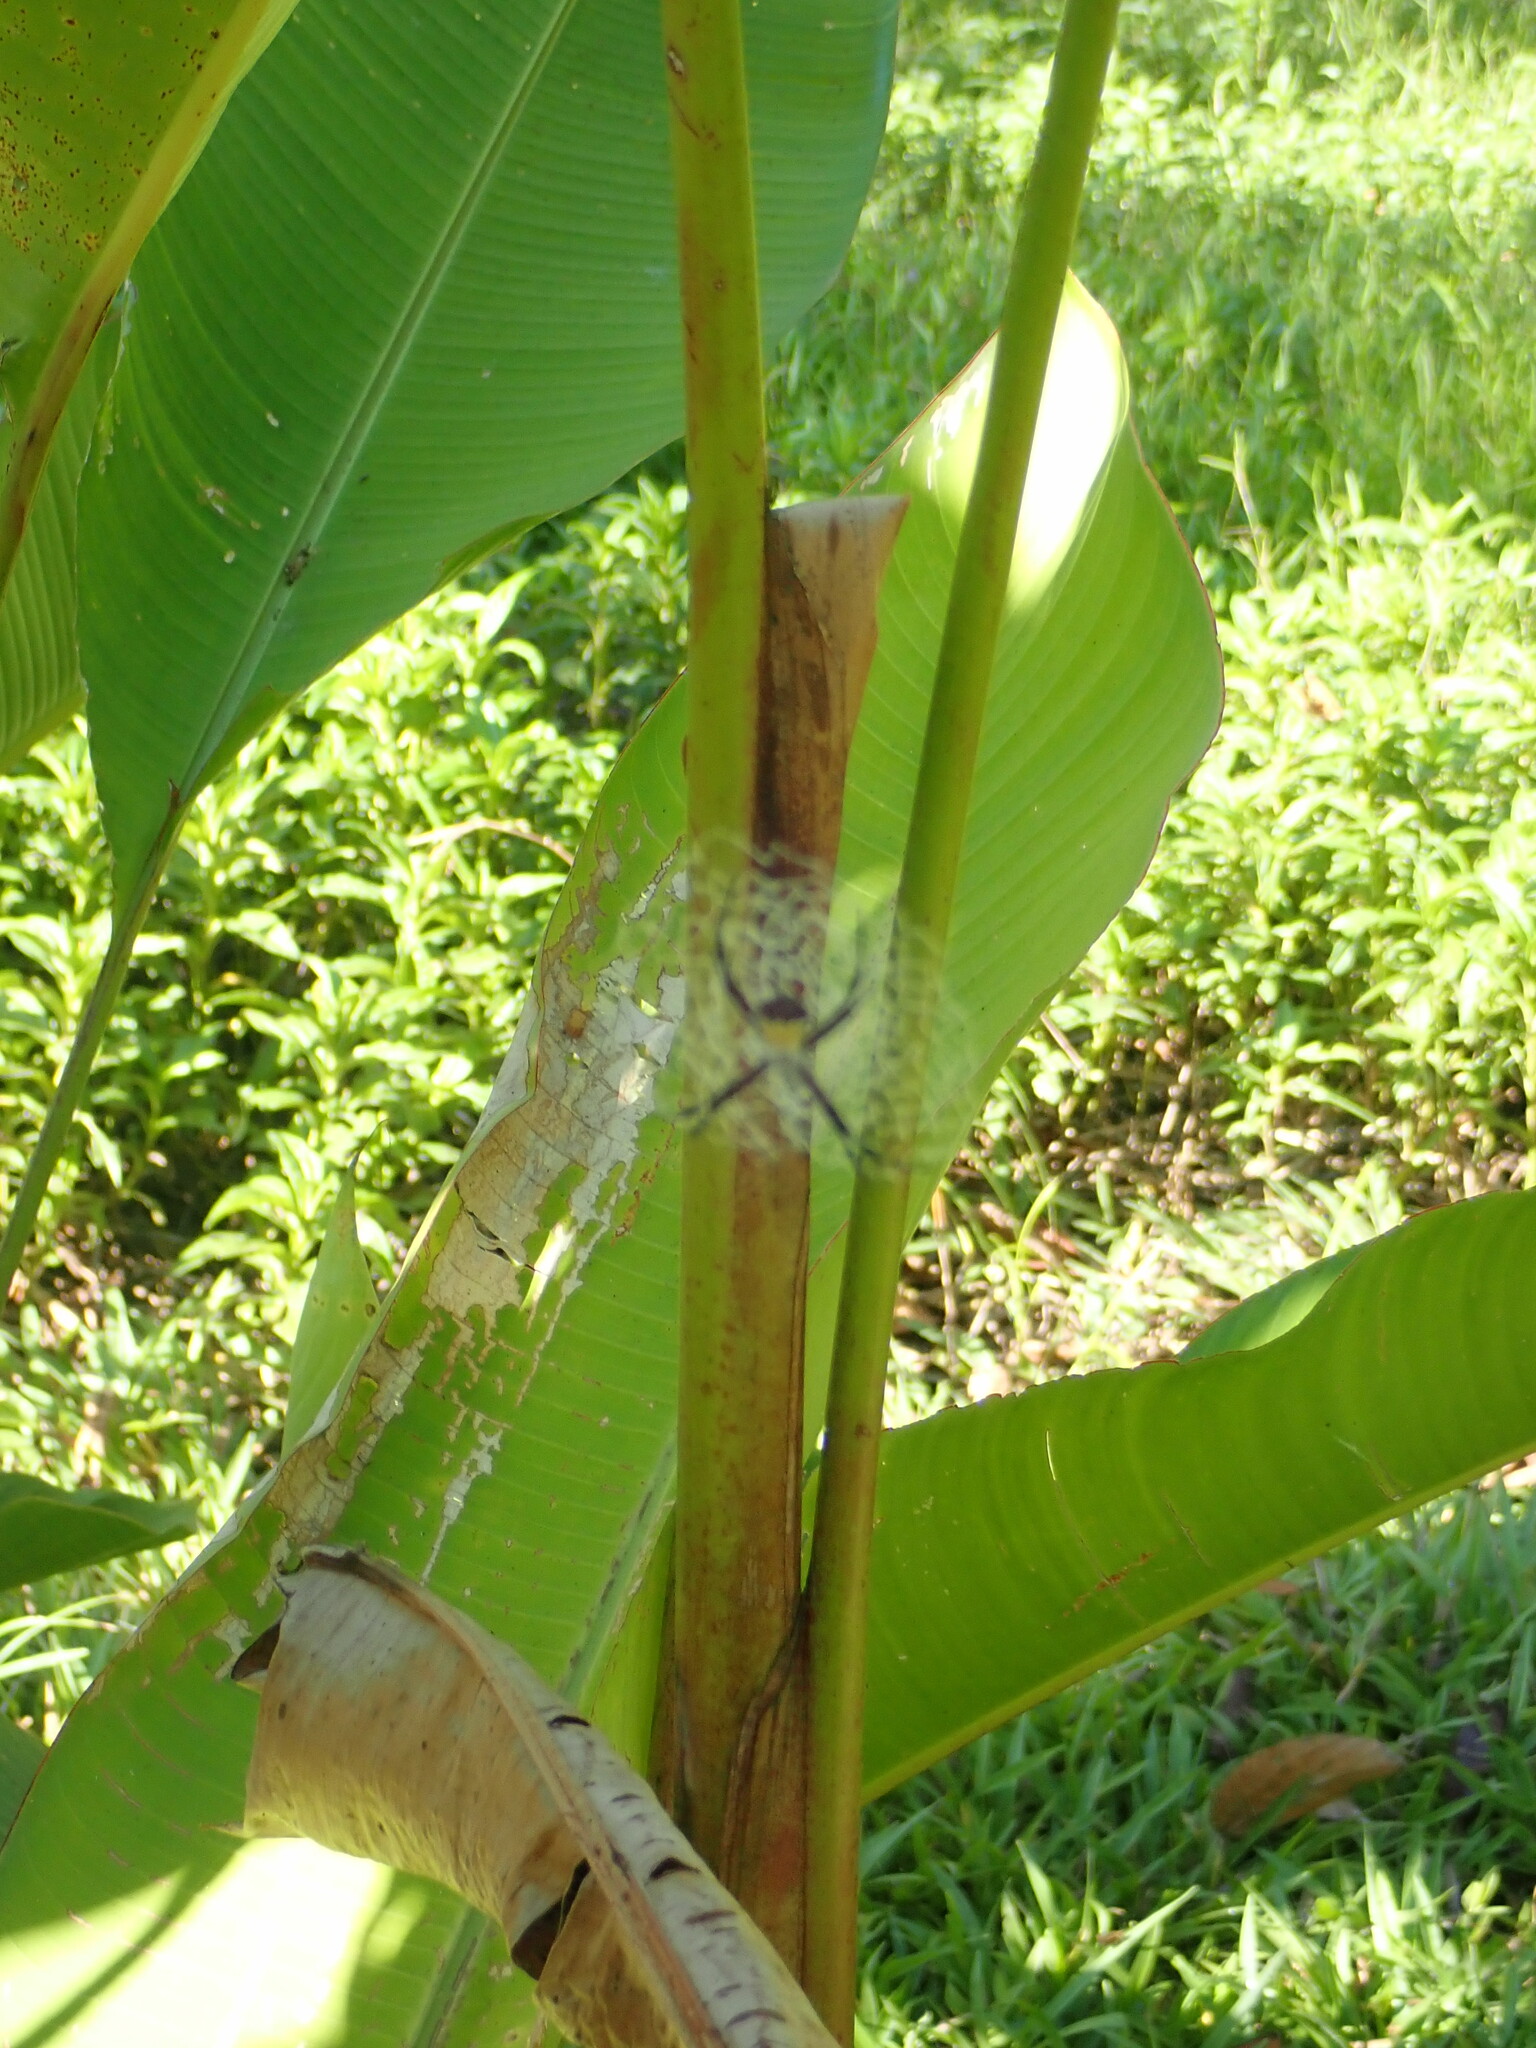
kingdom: Animalia
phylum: Arthropoda
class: Arachnida
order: Araneae
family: Araneidae
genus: Argiope
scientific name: Argiope submaronica
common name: Orb weavers
